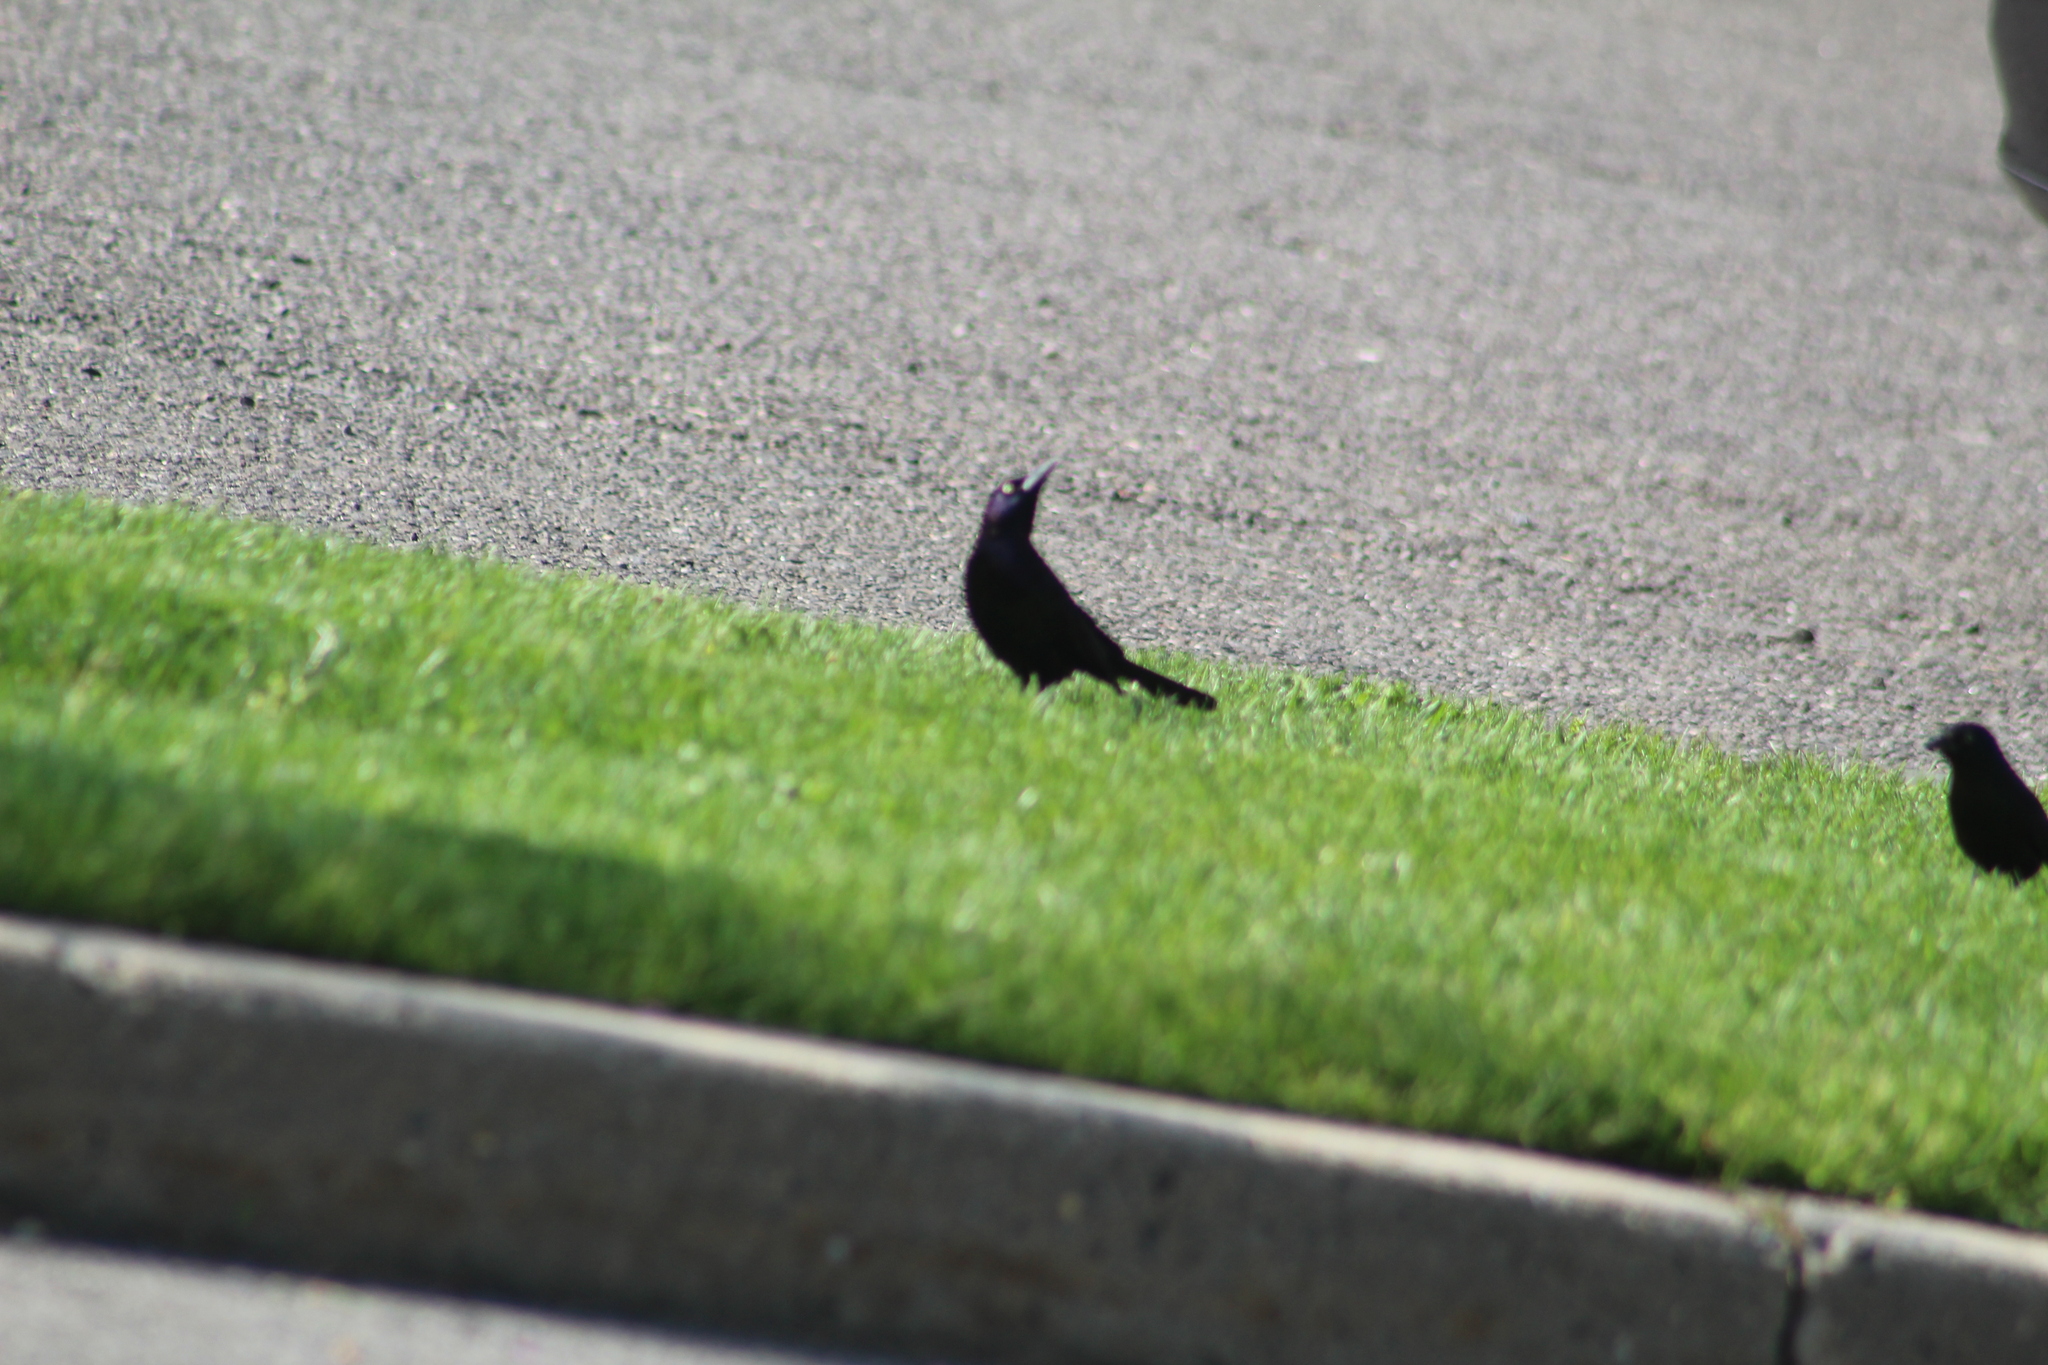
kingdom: Animalia
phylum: Chordata
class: Aves
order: Passeriformes
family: Icteridae
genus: Quiscalus
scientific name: Quiscalus quiscula
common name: Common grackle
